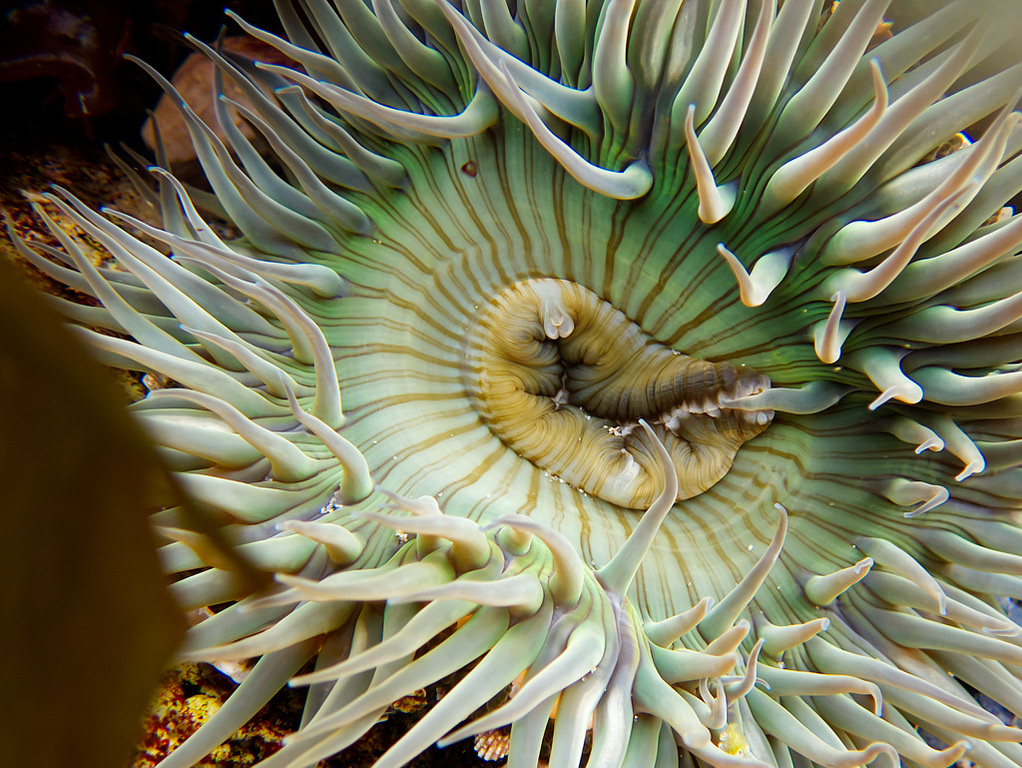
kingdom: Animalia
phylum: Cnidaria
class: Anthozoa
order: Actiniaria
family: Actiniidae
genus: Anthopleura
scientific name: Anthopleura sola
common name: Sun anemone
